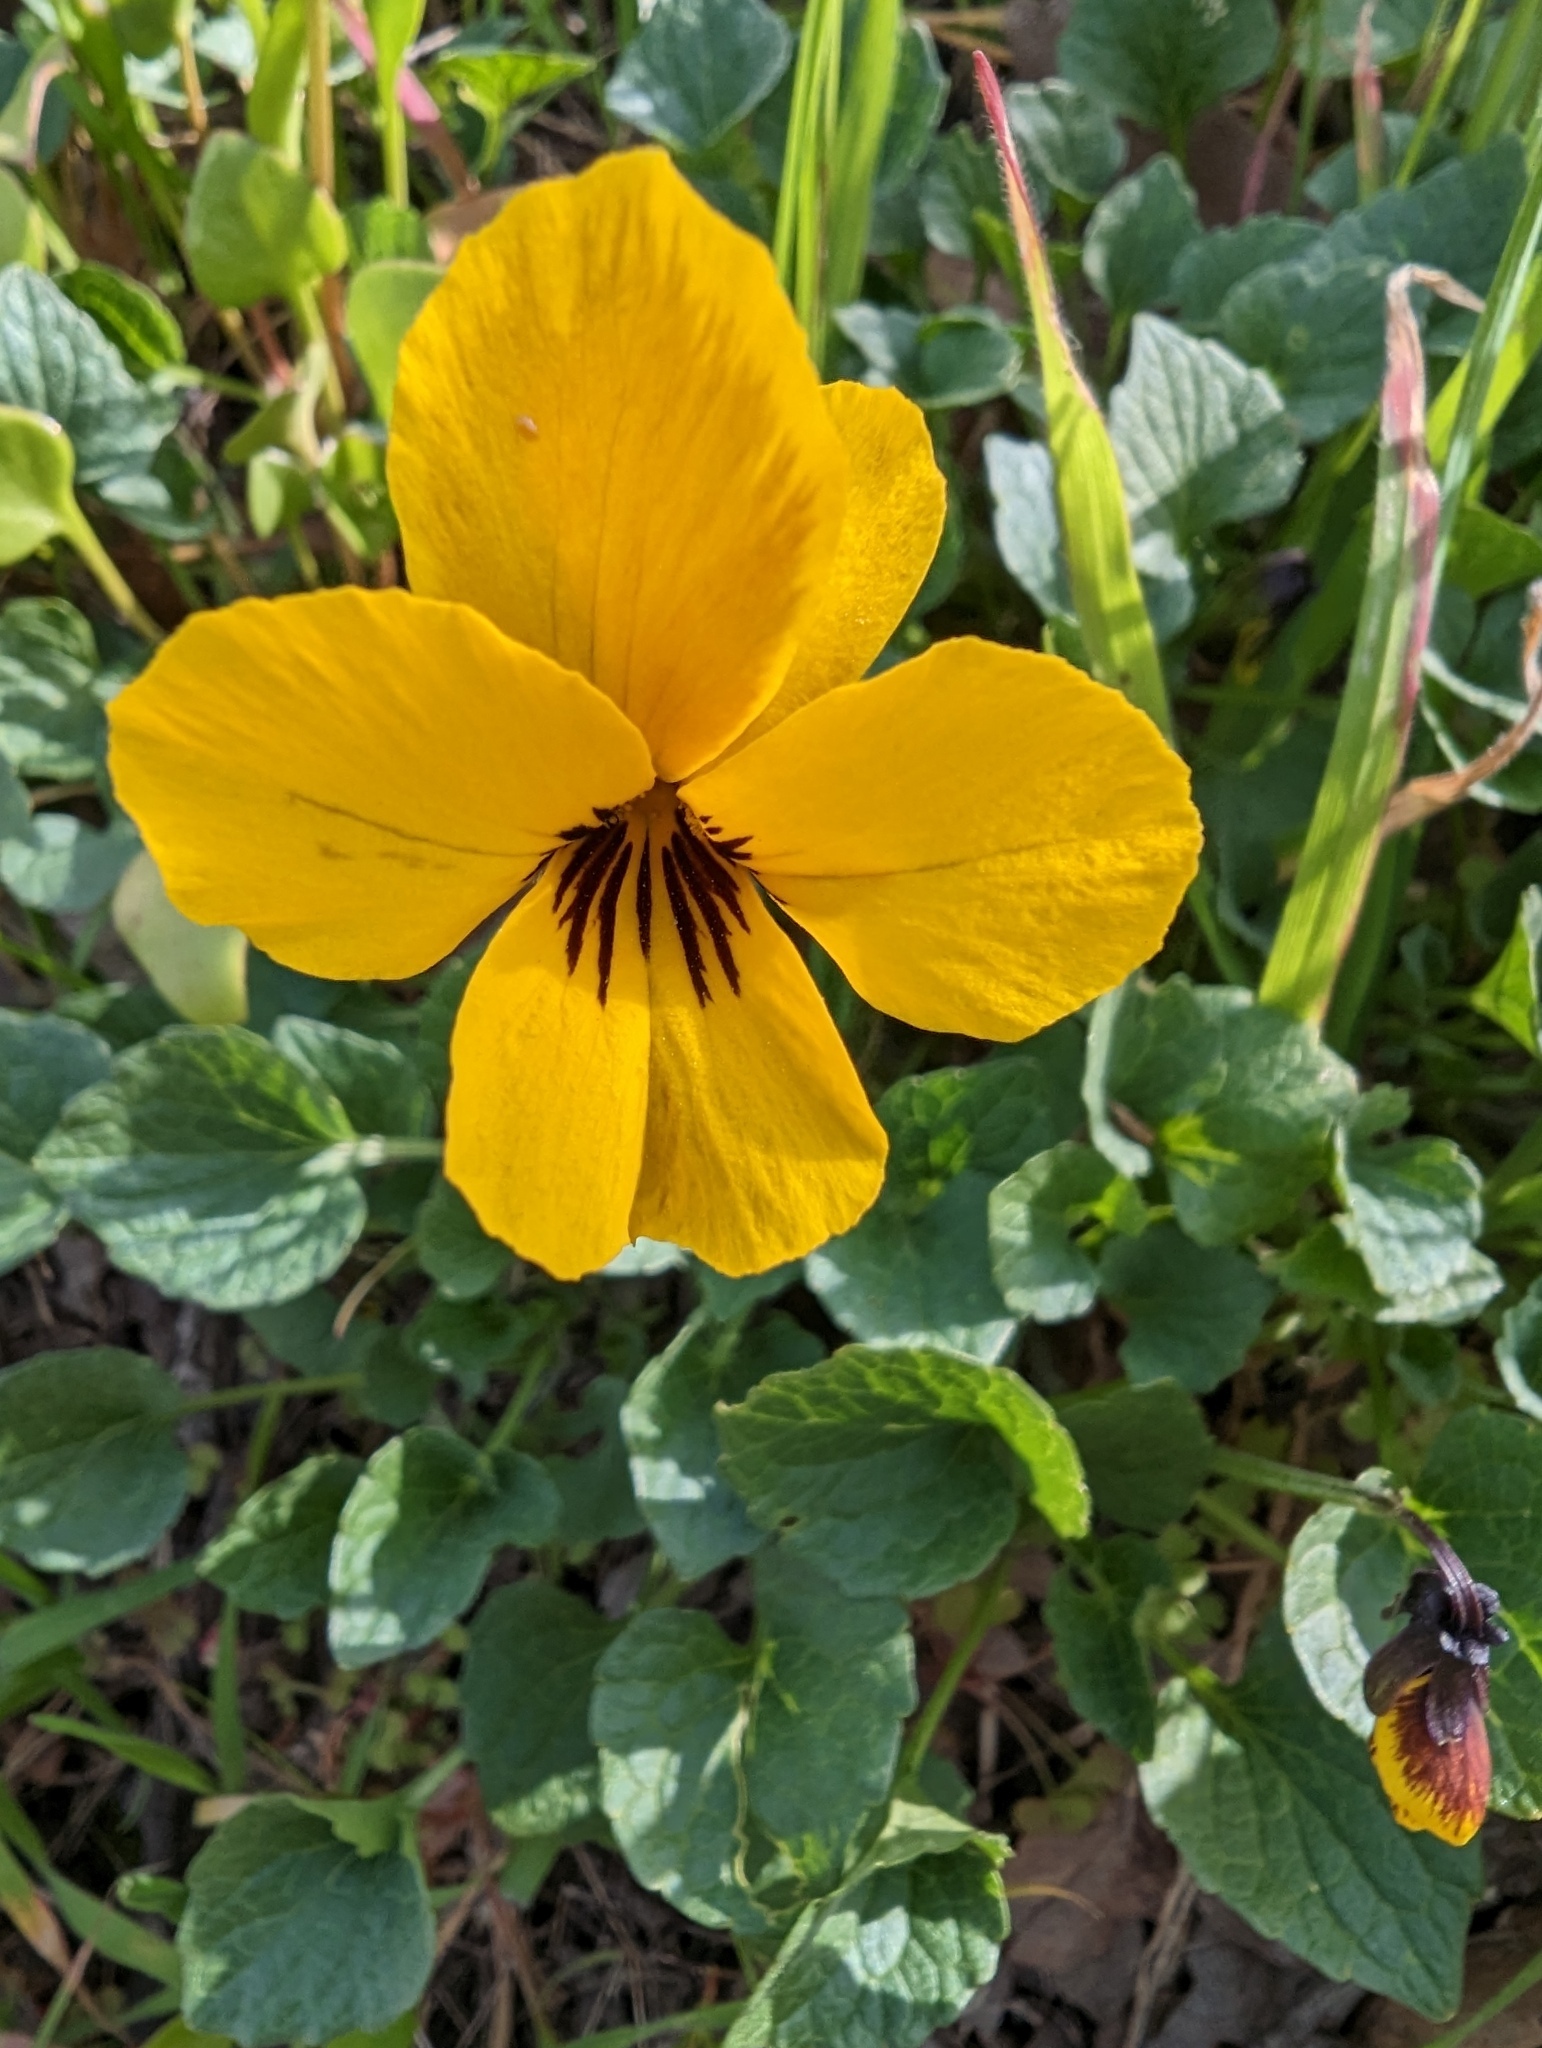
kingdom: Plantae
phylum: Tracheophyta
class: Magnoliopsida
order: Malpighiales
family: Violaceae
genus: Viola
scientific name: Viola pedunculata
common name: California golden violet
